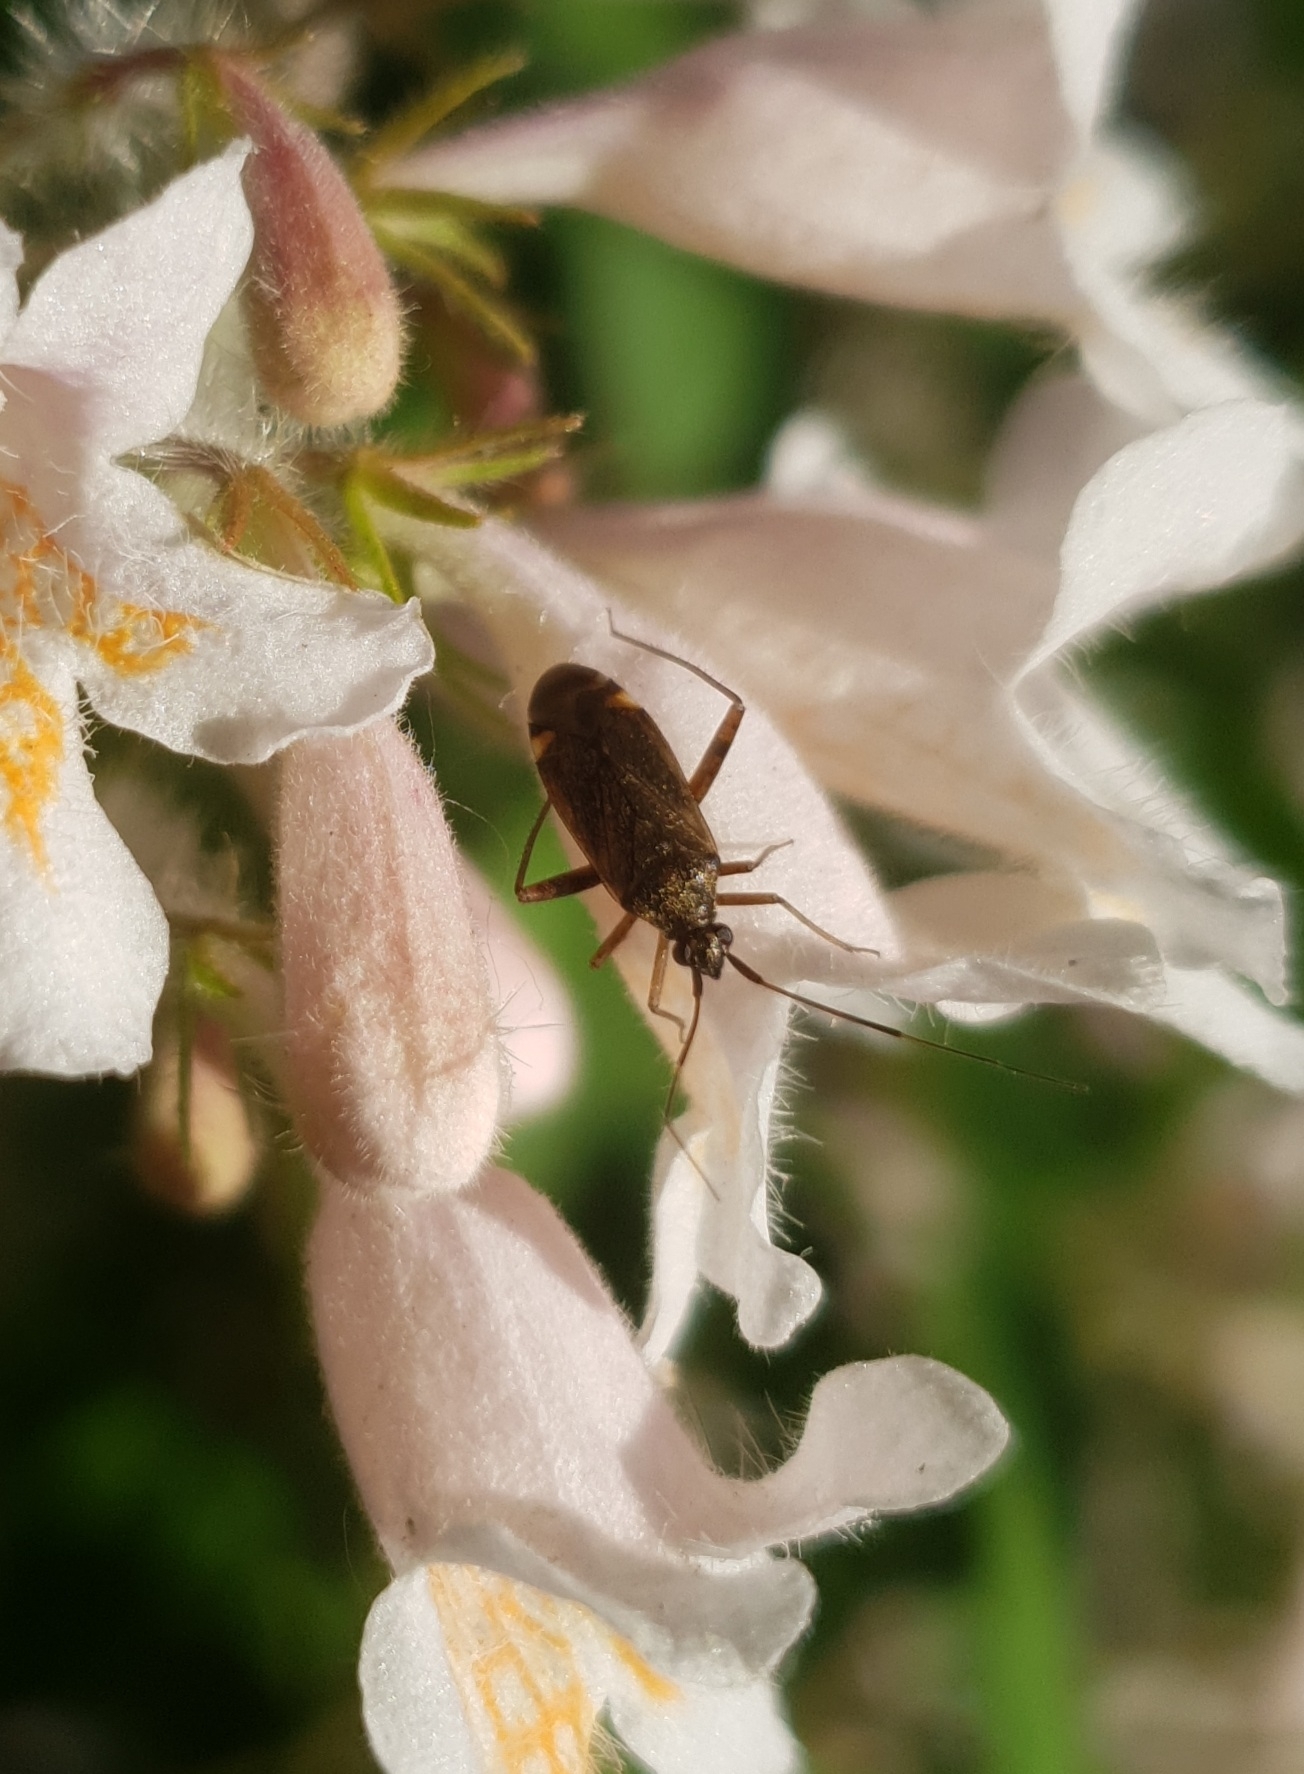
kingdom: Animalia
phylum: Arthropoda
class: Insecta
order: Hemiptera
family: Miridae
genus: Closterotomus
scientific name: Closterotomus fulvomaculatus
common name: Spotted plant bug
